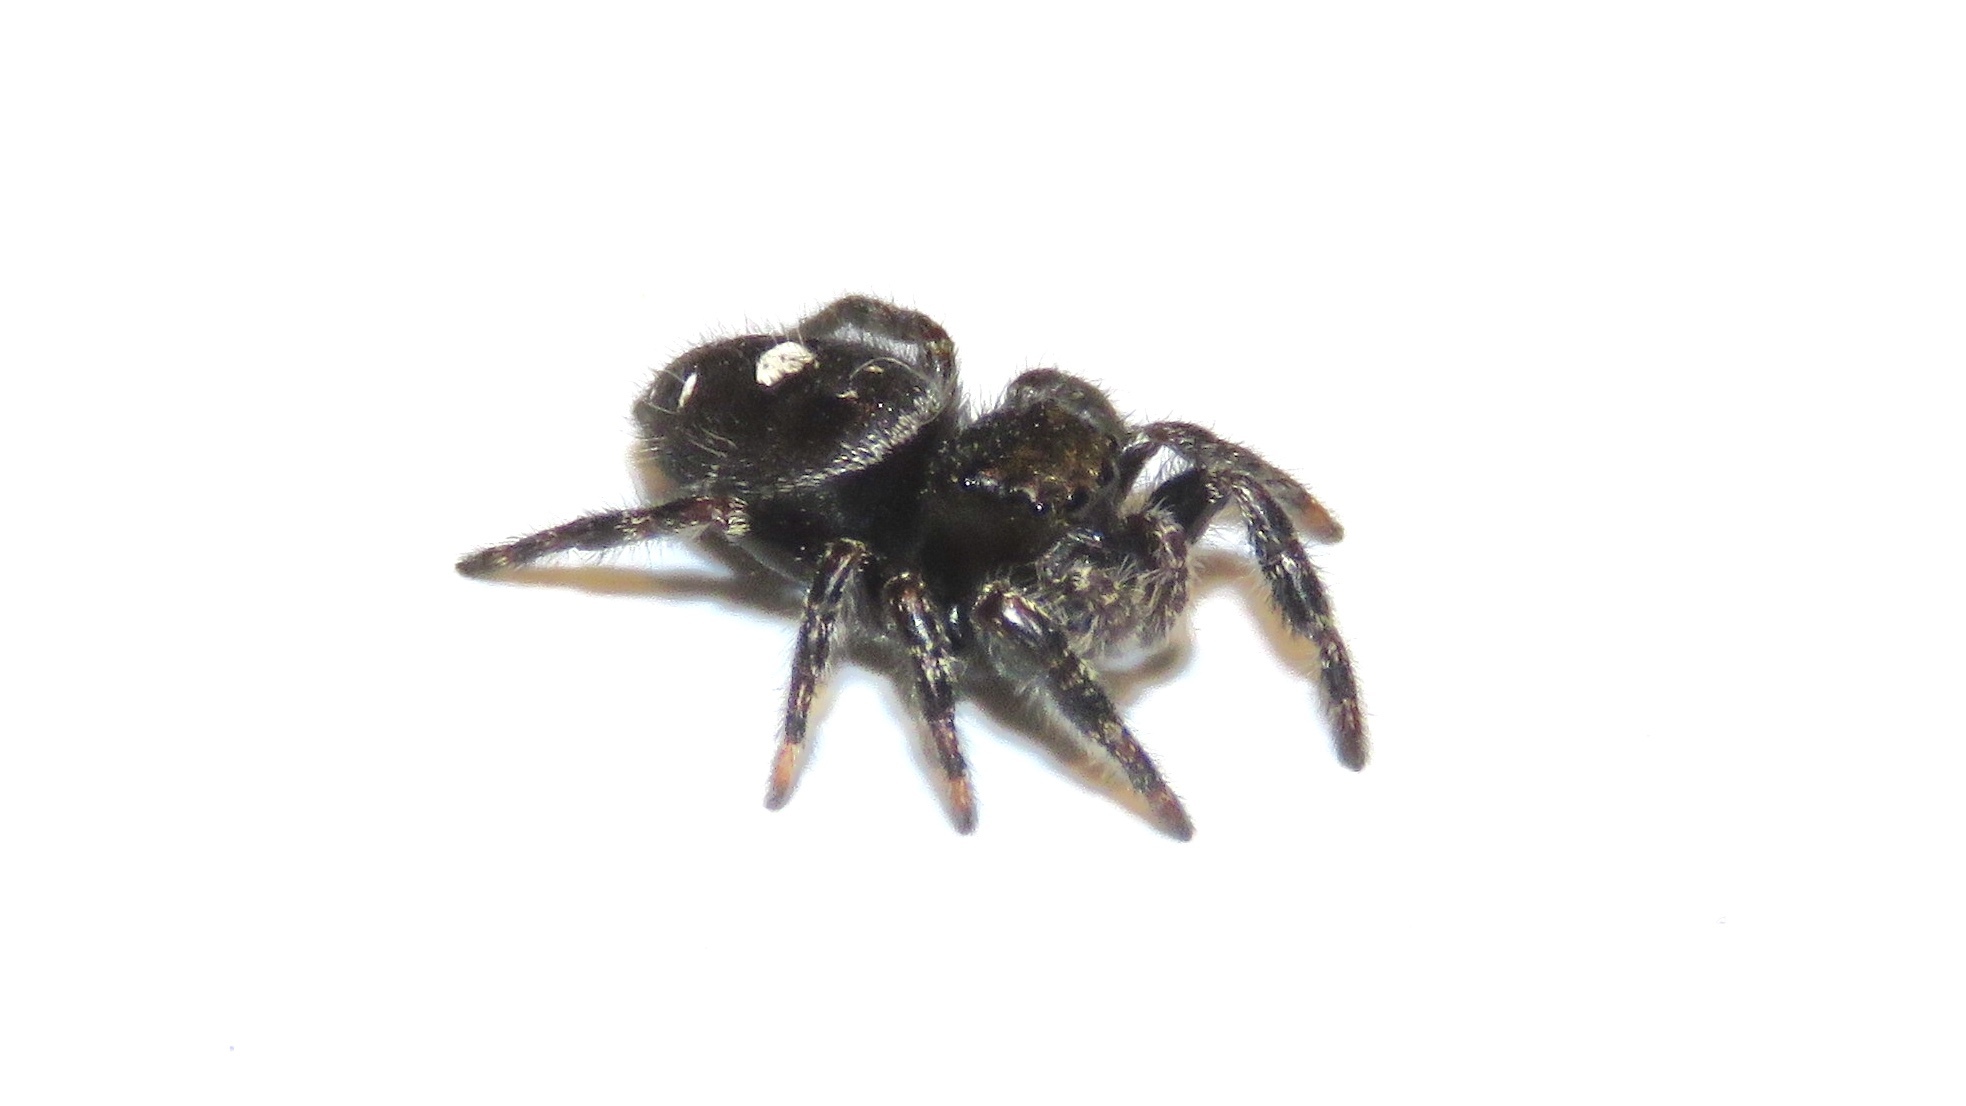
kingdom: Animalia
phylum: Arthropoda
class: Arachnida
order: Araneae
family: Salticidae
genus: Phidippus
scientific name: Phidippus audax
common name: Bold jumper
